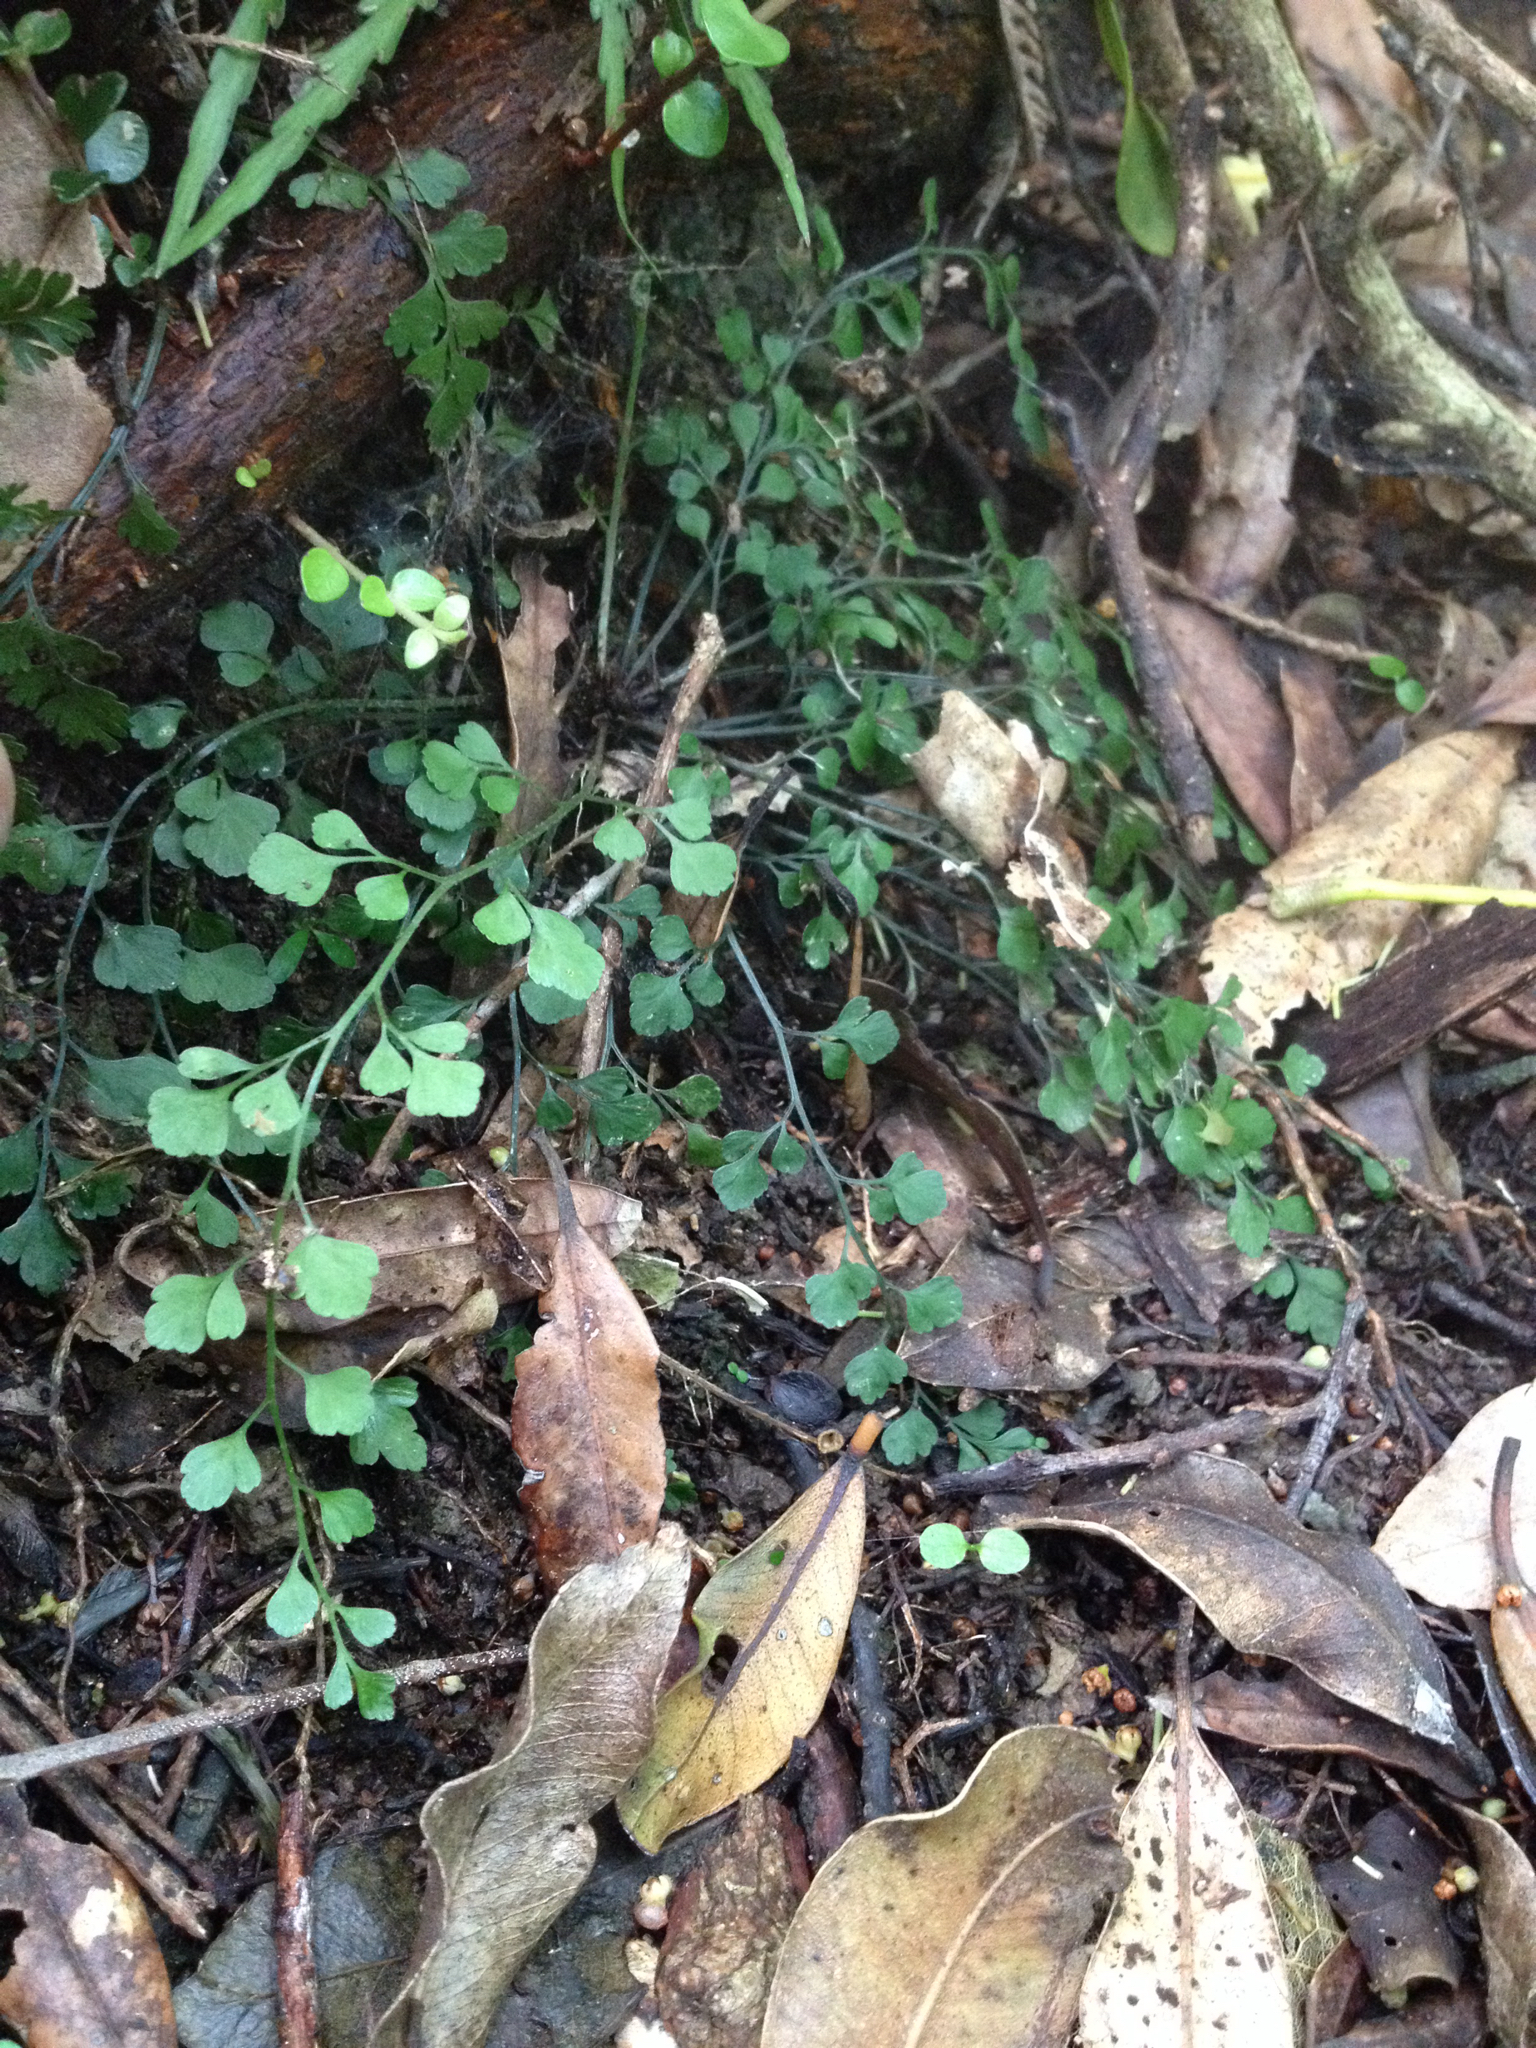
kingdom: Plantae
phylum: Tracheophyta
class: Polypodiopsida
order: Polypodiales
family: Aspleniaceae
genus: Asplenium
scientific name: Asplenium hookerianum
